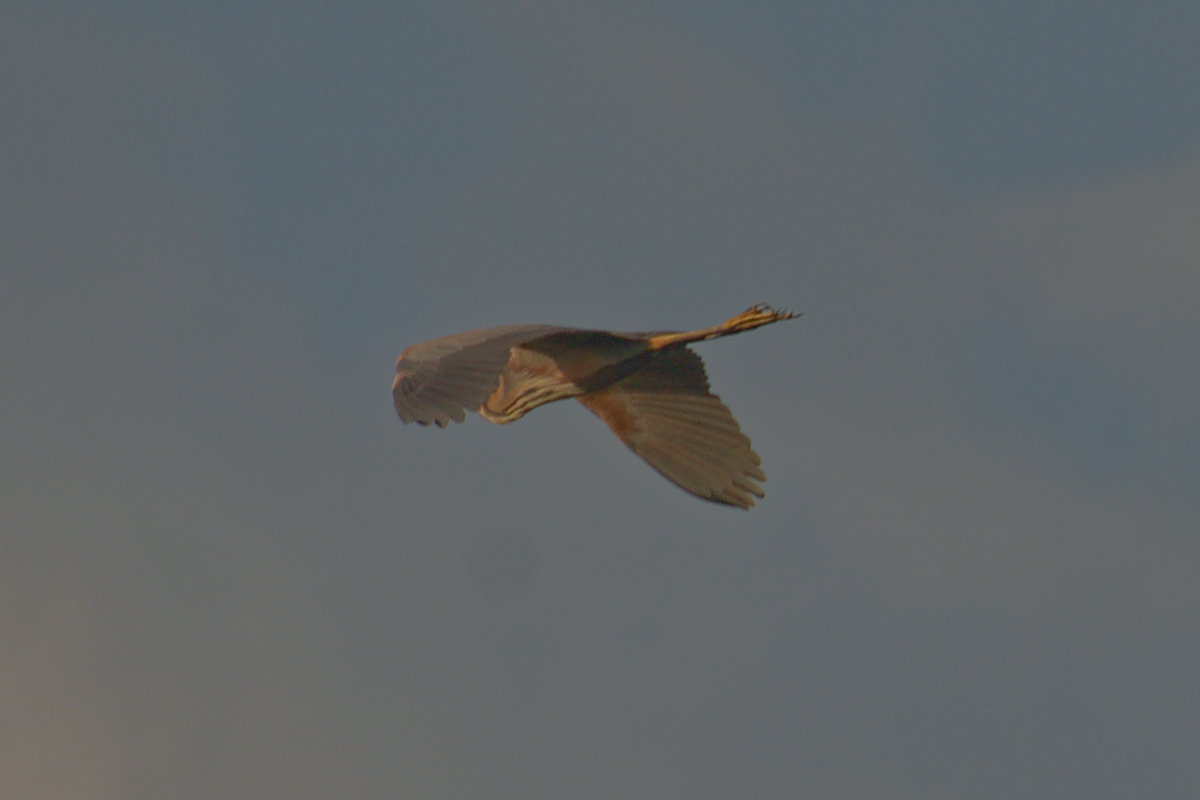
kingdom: Animalia
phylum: Chordata
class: Aves
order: Pelecaniformes
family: Ardeidae
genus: Ardea
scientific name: Ardea purpurea
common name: Purple heron
